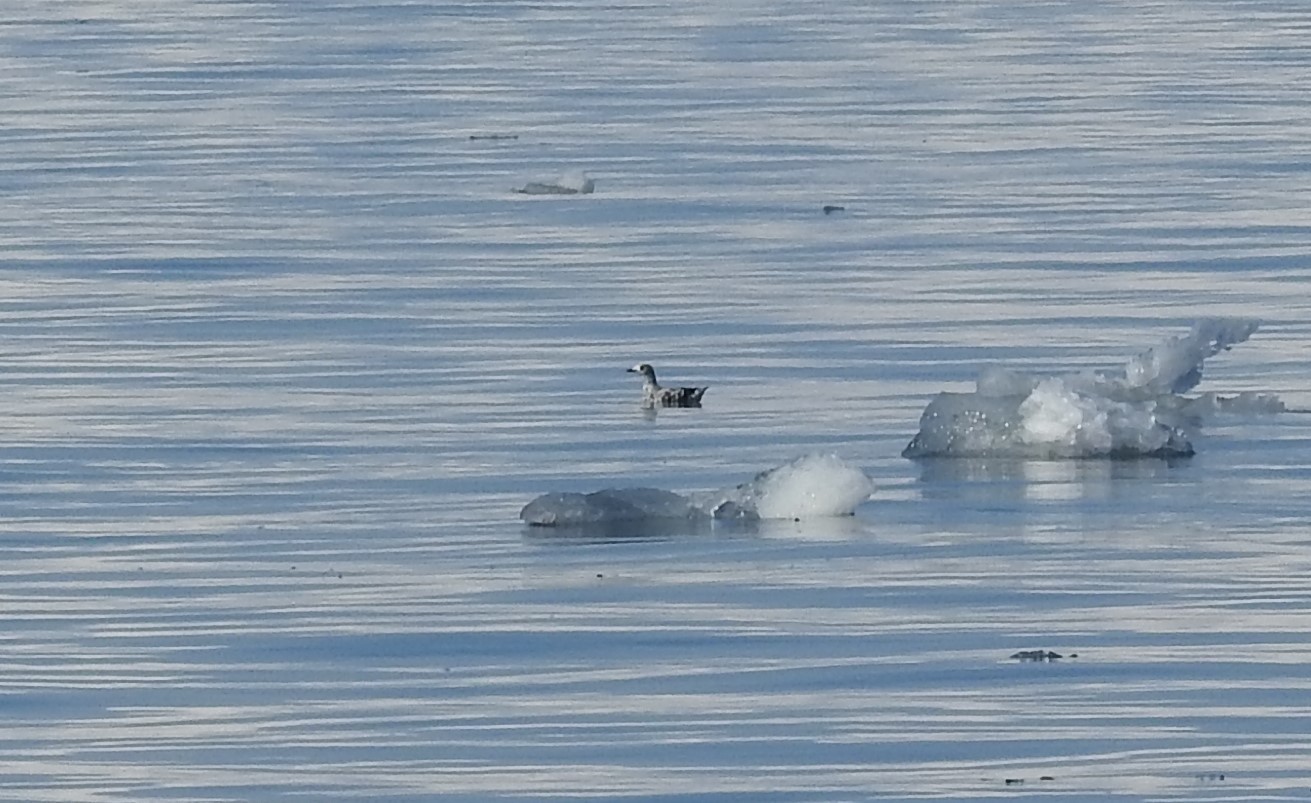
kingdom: Animalia
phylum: Chordata
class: Aves
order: Charadriiformes
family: Alcidae
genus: Cepphus
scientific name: Cepphus grylle
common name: Black guillemot
